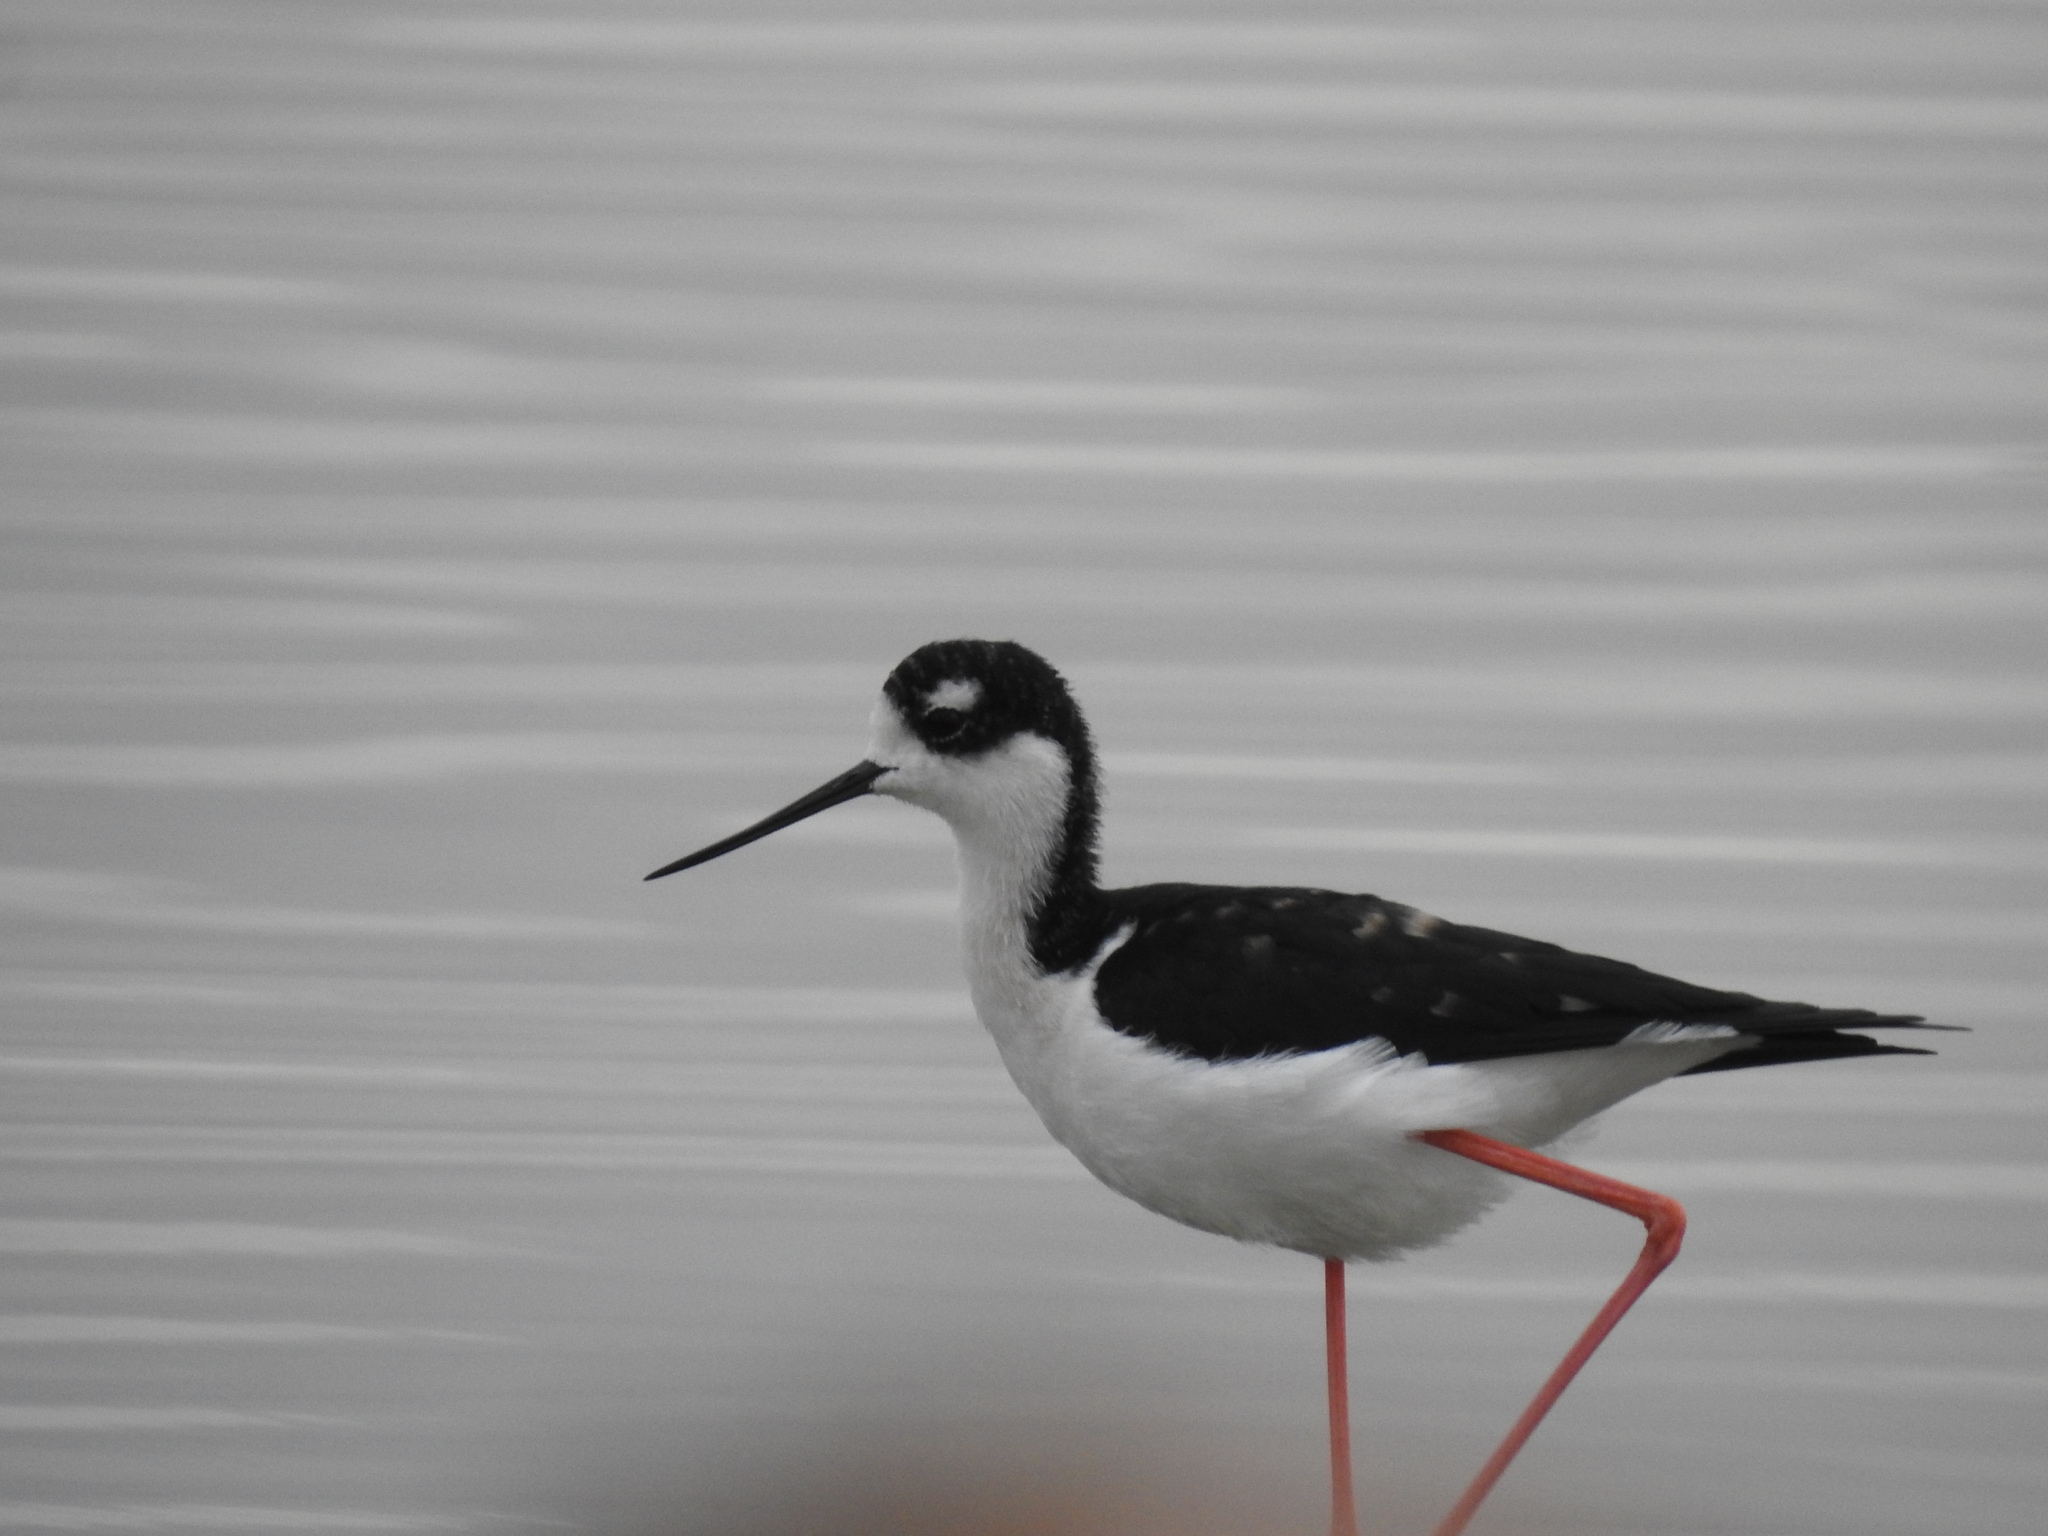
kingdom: Animalia
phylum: Chordata
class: Aves
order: Charadriiformes
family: Recurvirostridae
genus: Himantopus
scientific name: Himantopus mexicanus
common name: Black-necked stilt
